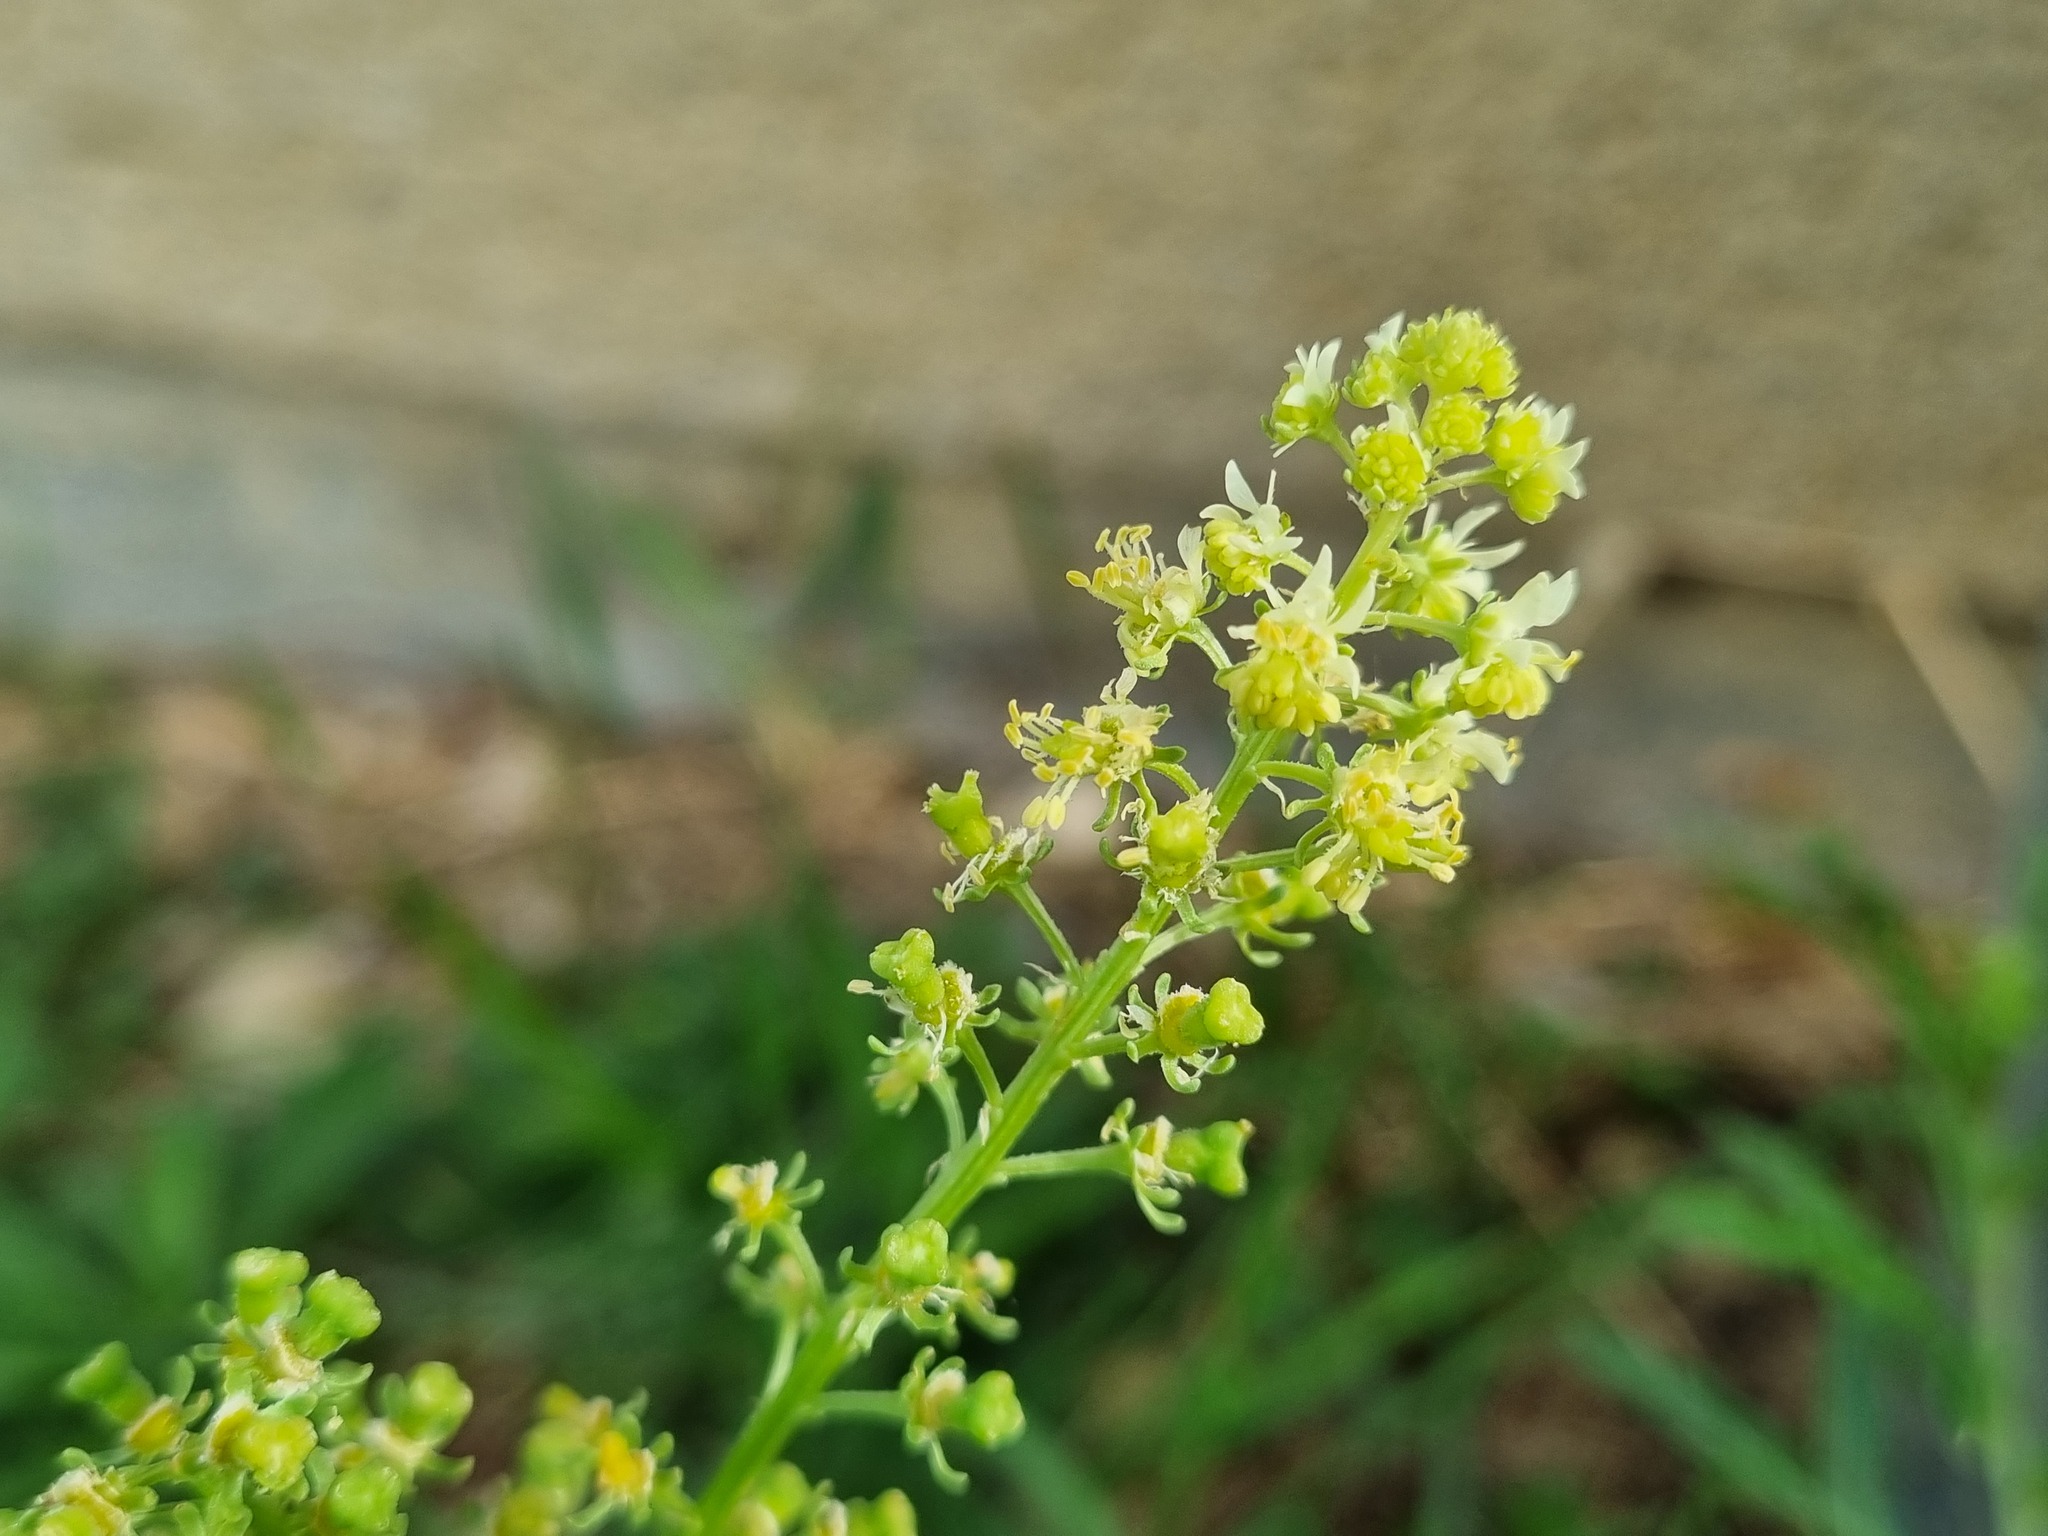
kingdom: Plantae
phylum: Tracheophyta
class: Magnoliopsida
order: Brassicales
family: Resedaceae
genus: Reseda
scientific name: Reseda lutea
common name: Wild mignonette
